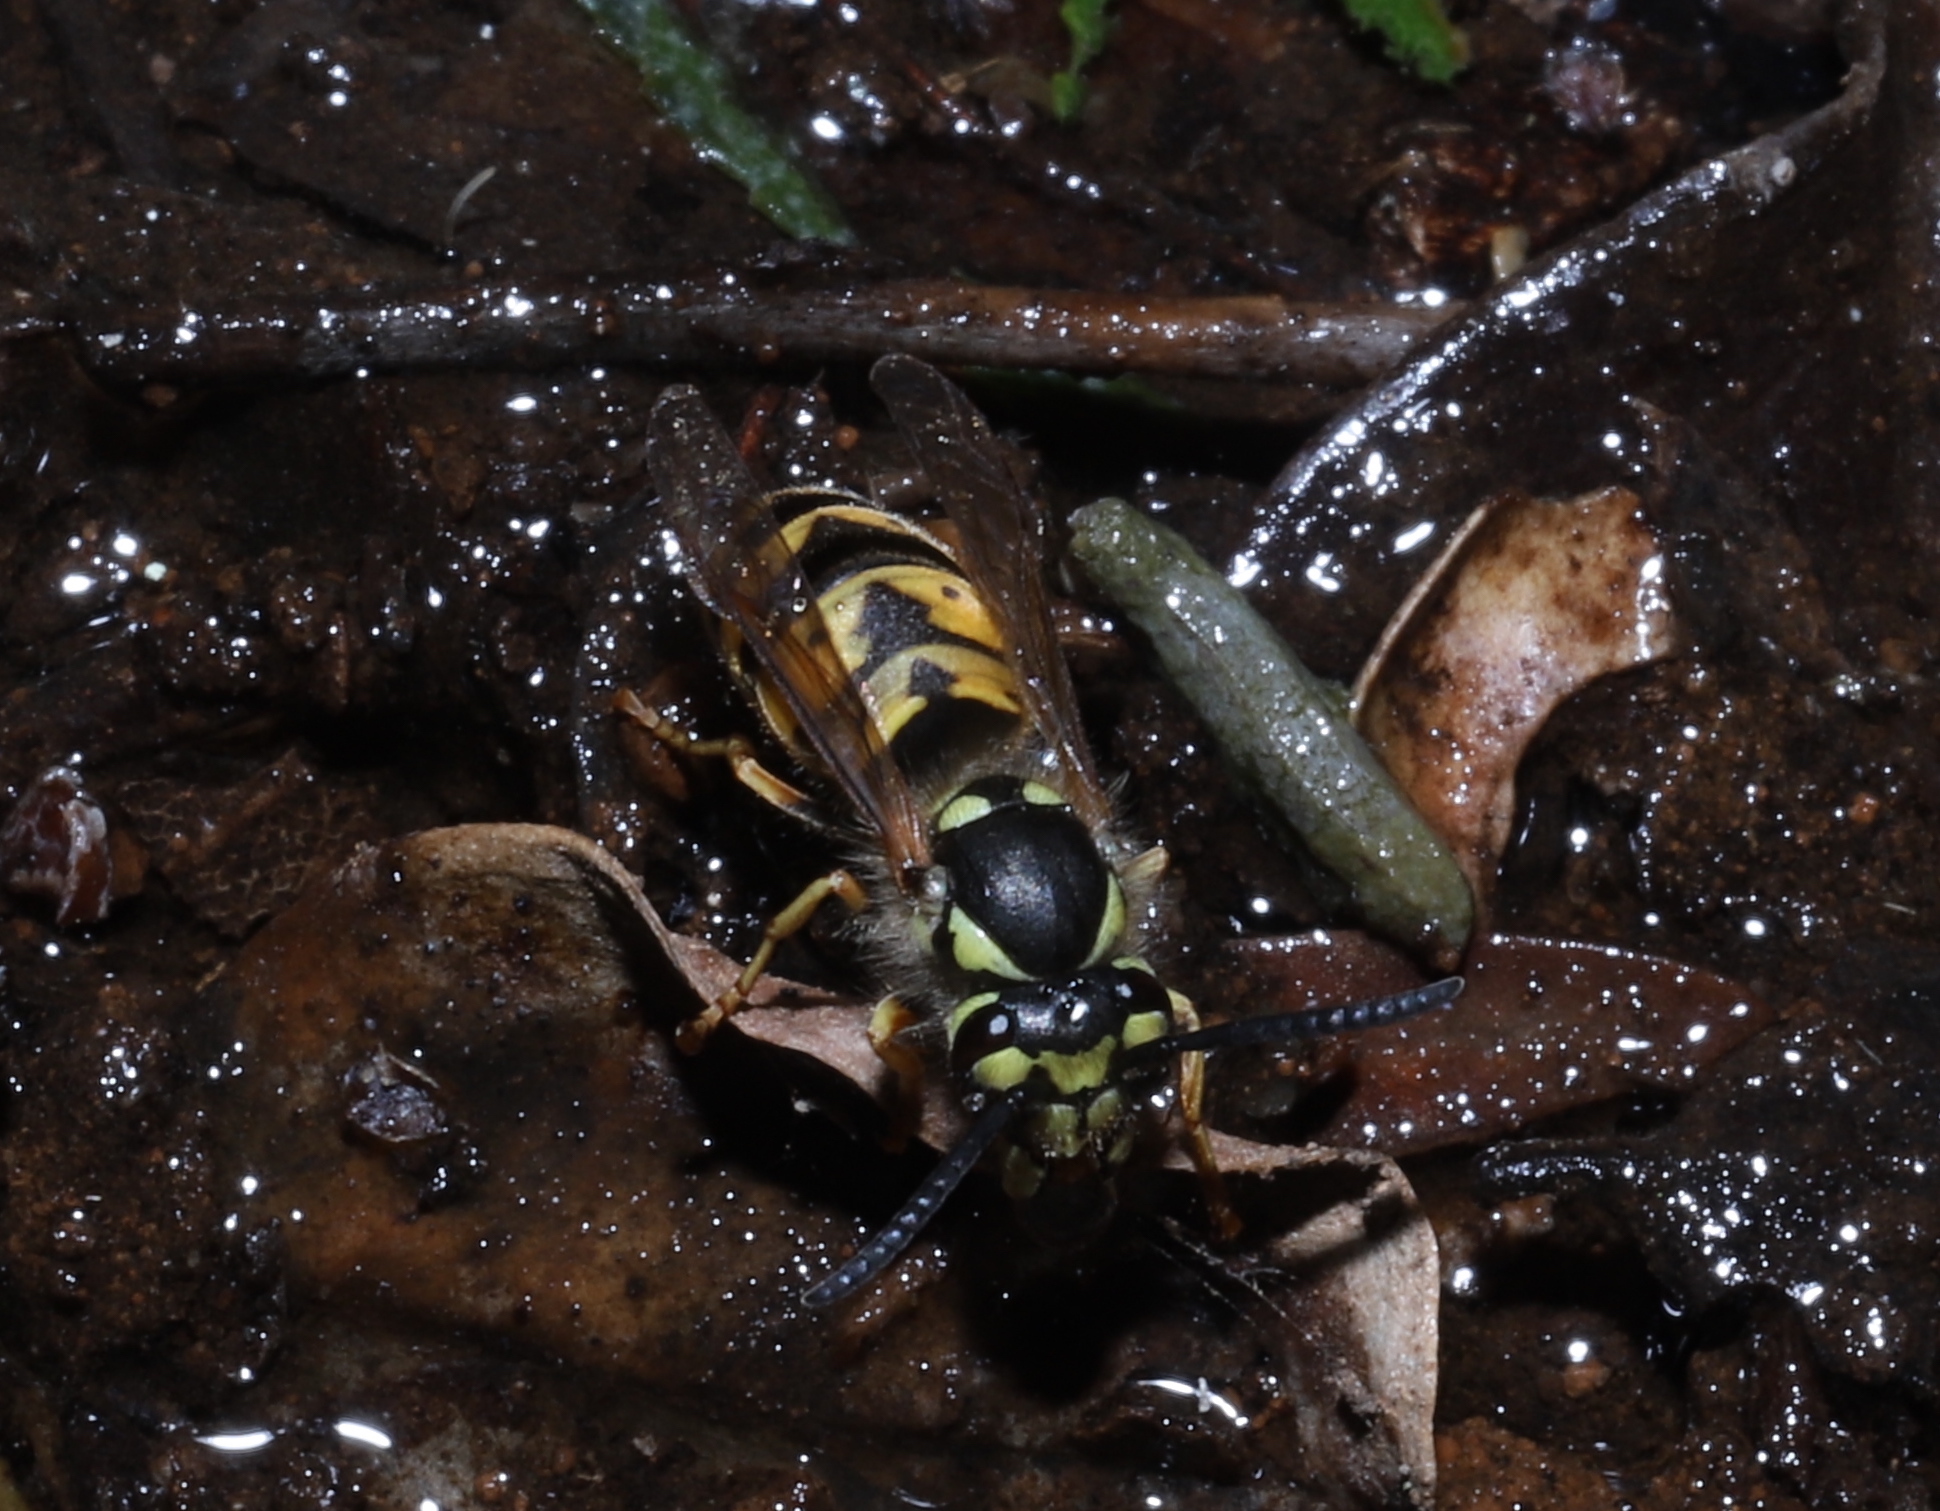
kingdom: Animalia
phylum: Arthropoda
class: Insecta
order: Hymenoptera
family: Vespidae
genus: Vespula
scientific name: Vespula germanica
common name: German wasp
